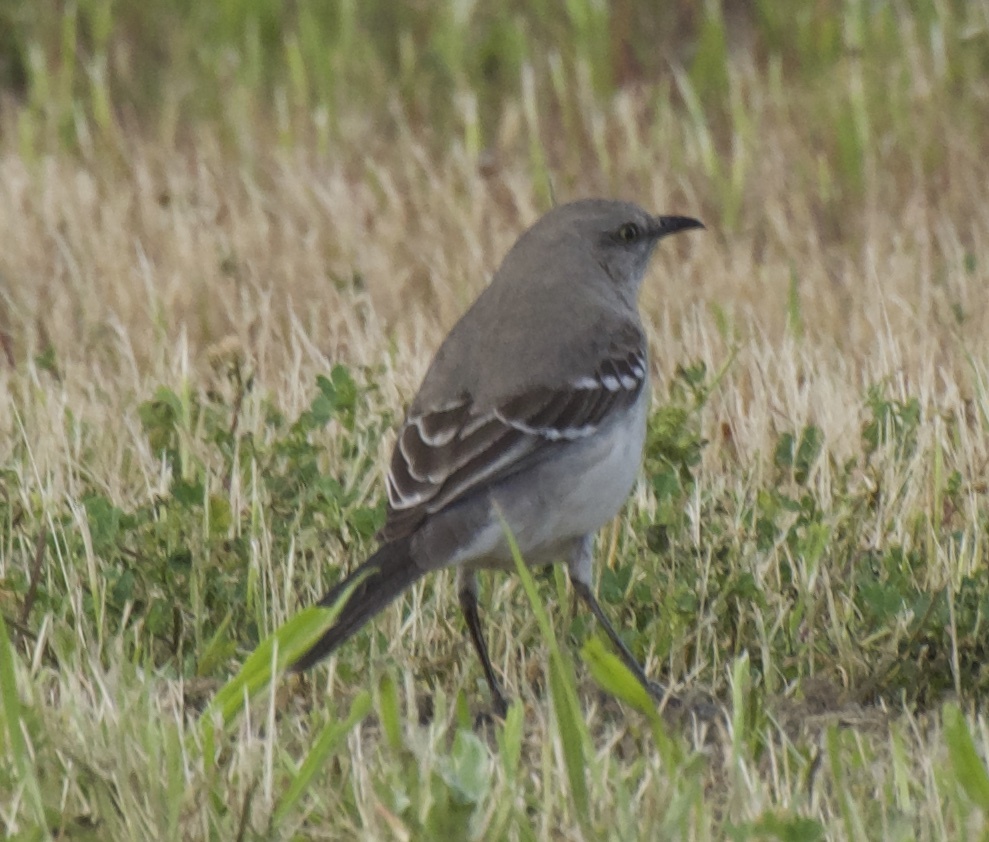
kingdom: Animalia
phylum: Chordata
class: Aves
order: Passeriformes
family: Mimidae
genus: Mimus
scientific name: Mimus polyglottos
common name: Northern mockingbird
